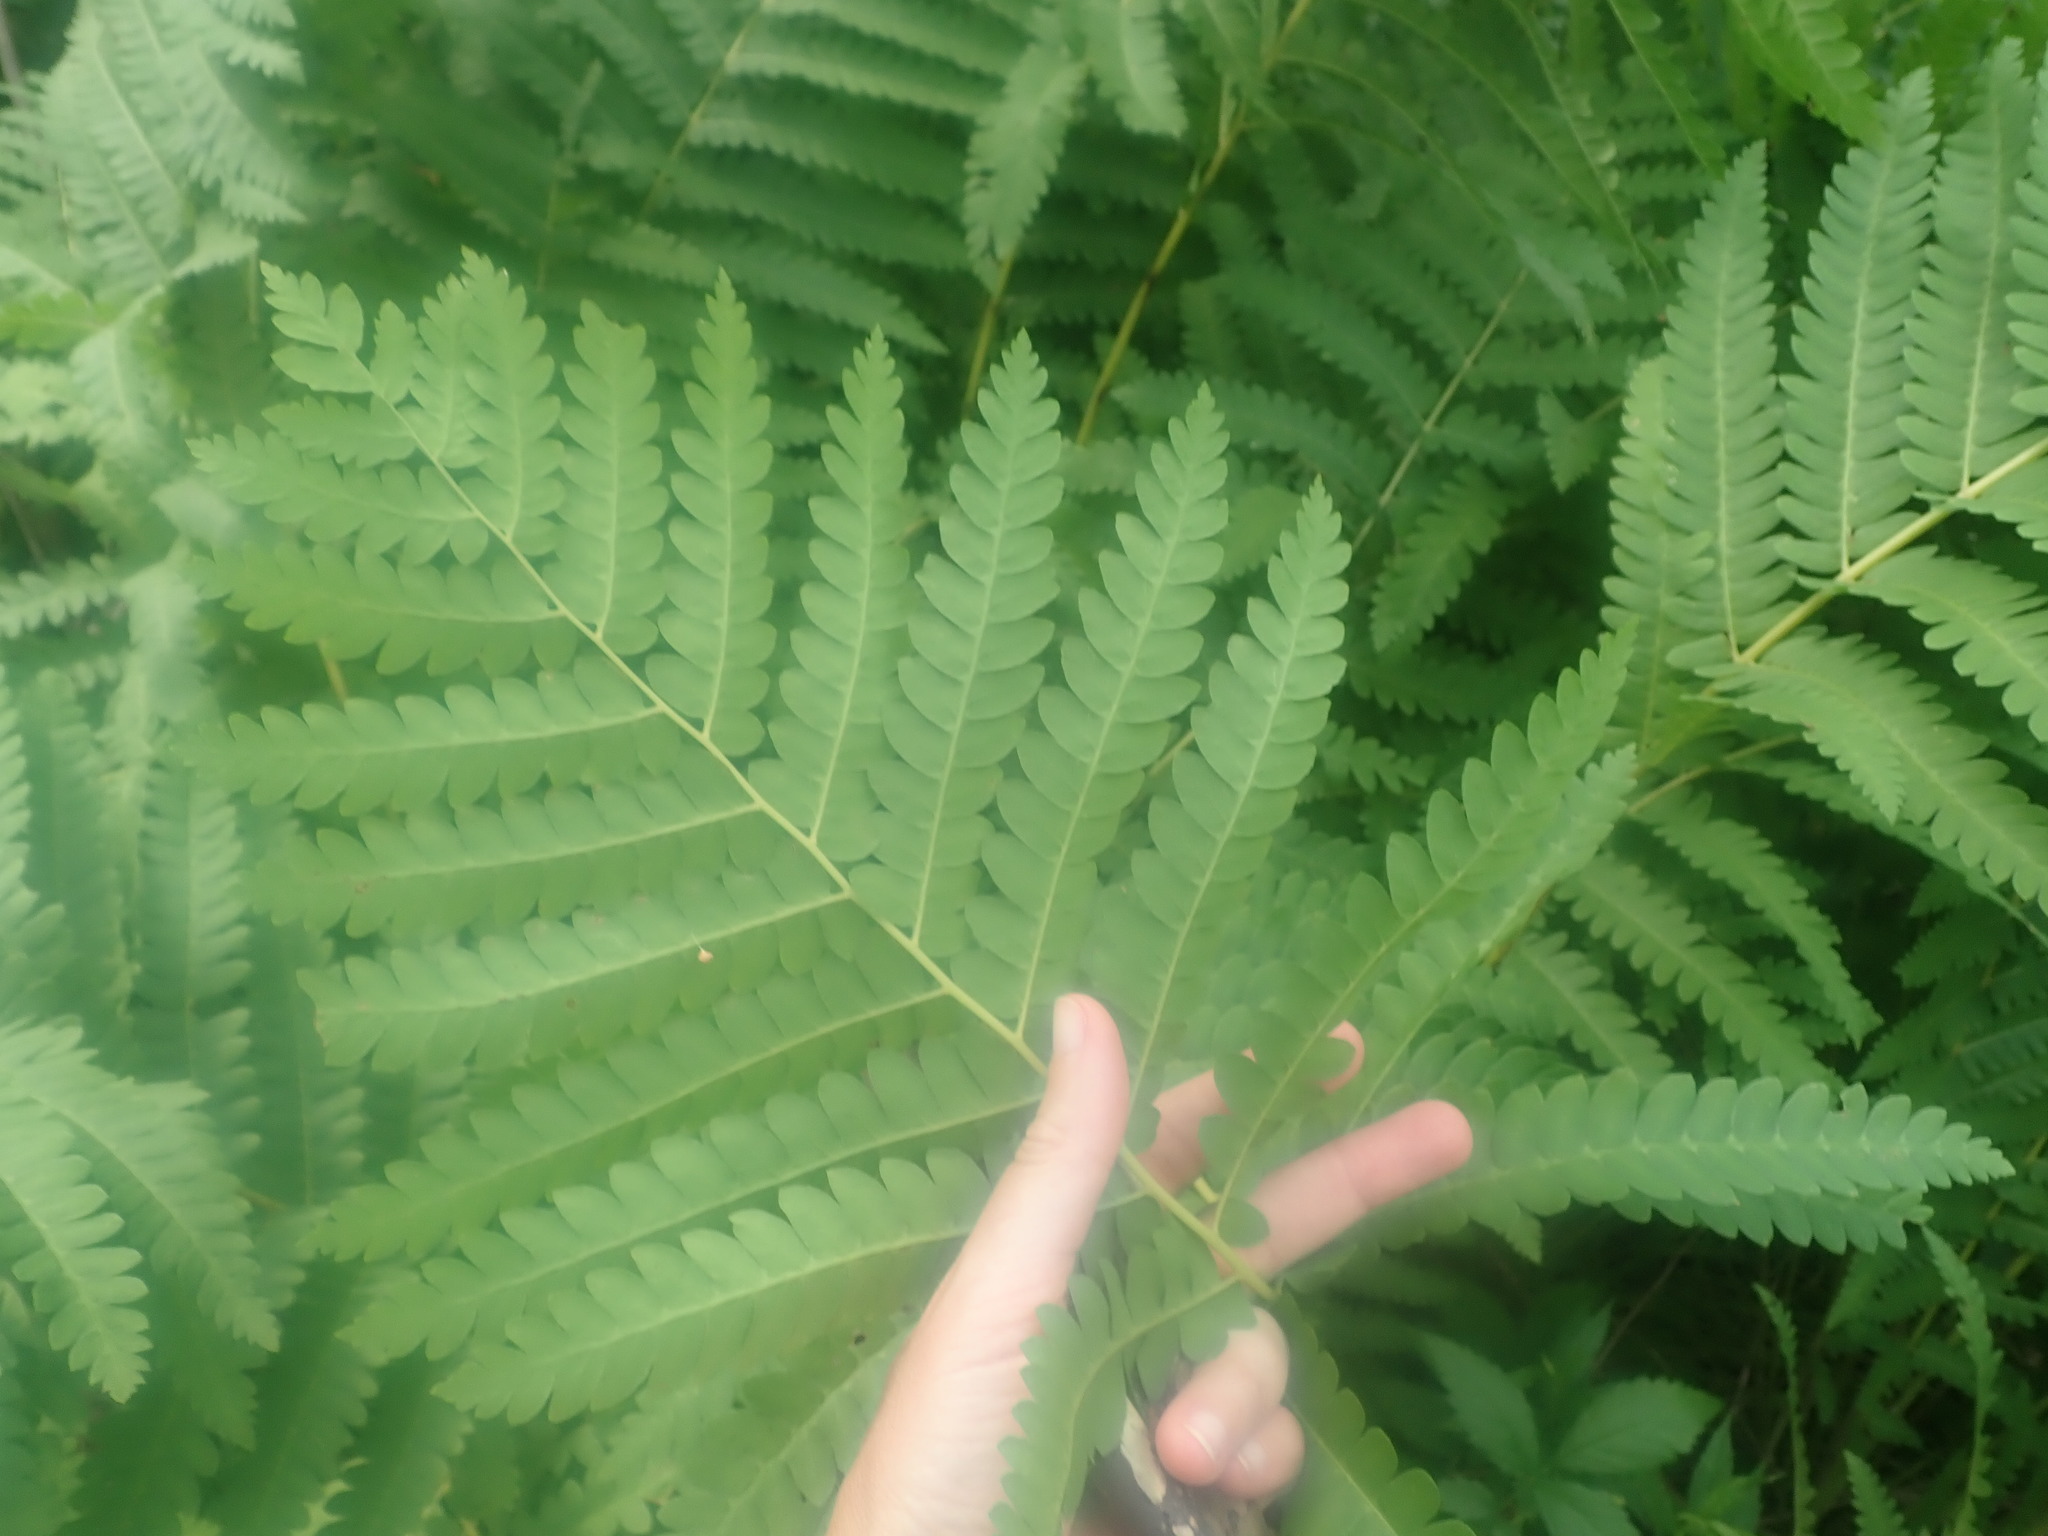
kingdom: Plantae
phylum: Tracheophyta
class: Polypodiopsida
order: Osmundales
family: Osmundaceae
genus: Claytosmunda
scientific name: Claytosmunda claytoniana
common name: Clayton's fern
